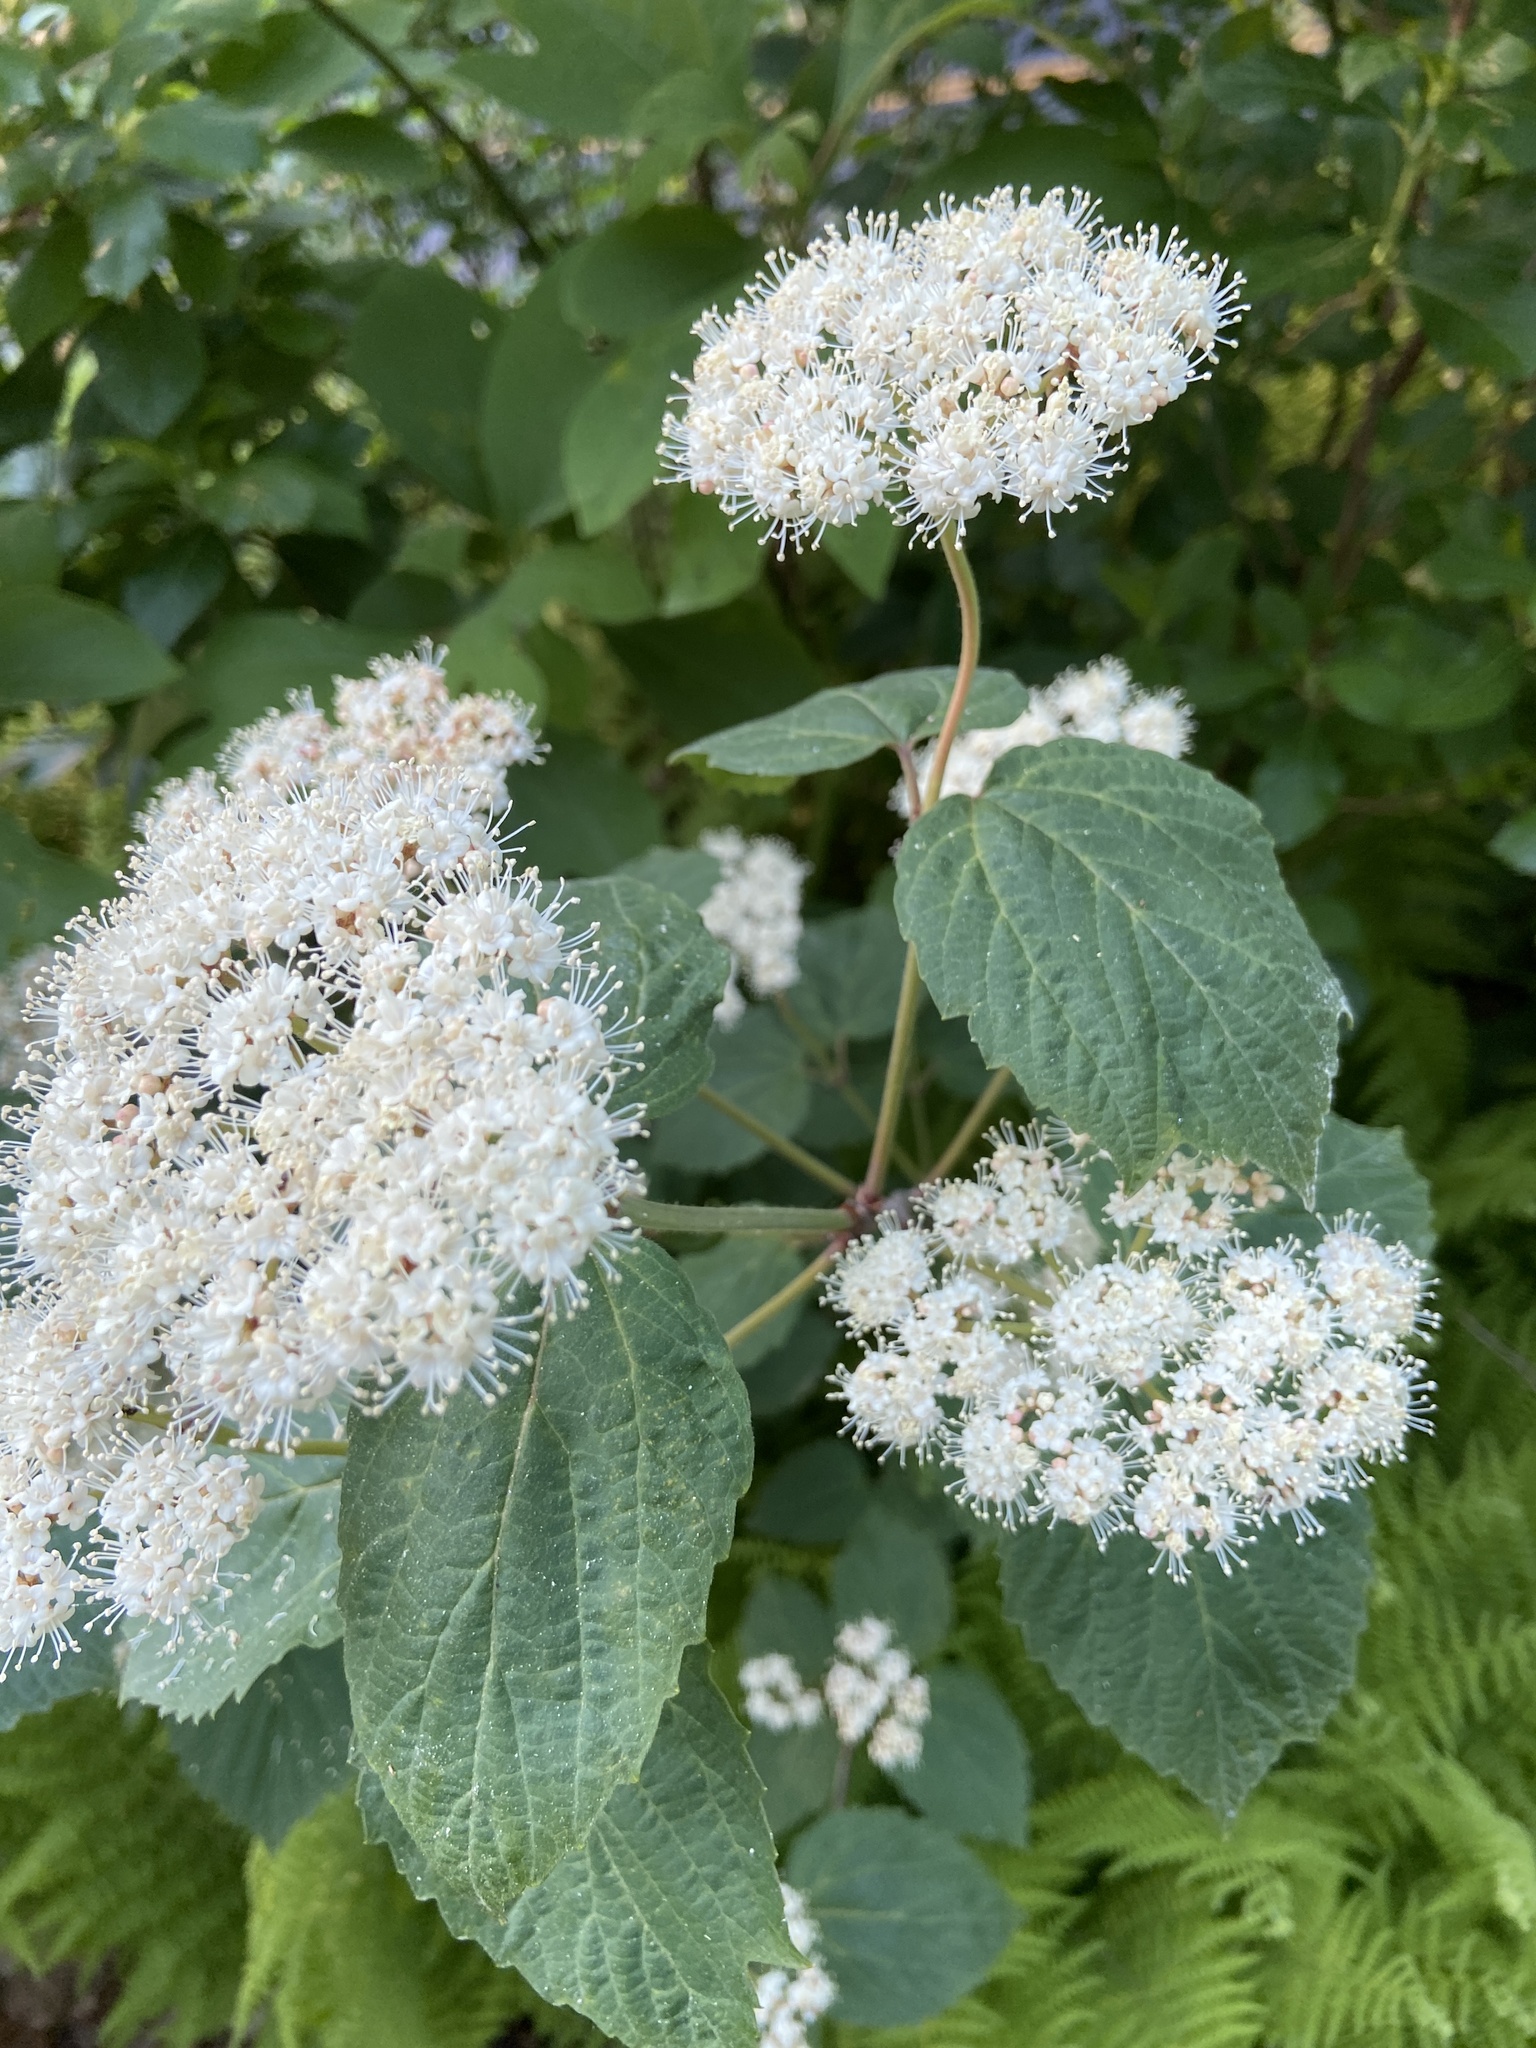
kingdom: Plantae
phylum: Tracheophyta
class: Magnoliopsida
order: Dipsacales
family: Viburnaceae
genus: Viburnum
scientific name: Viburnum acerifolium
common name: Dockmackie
